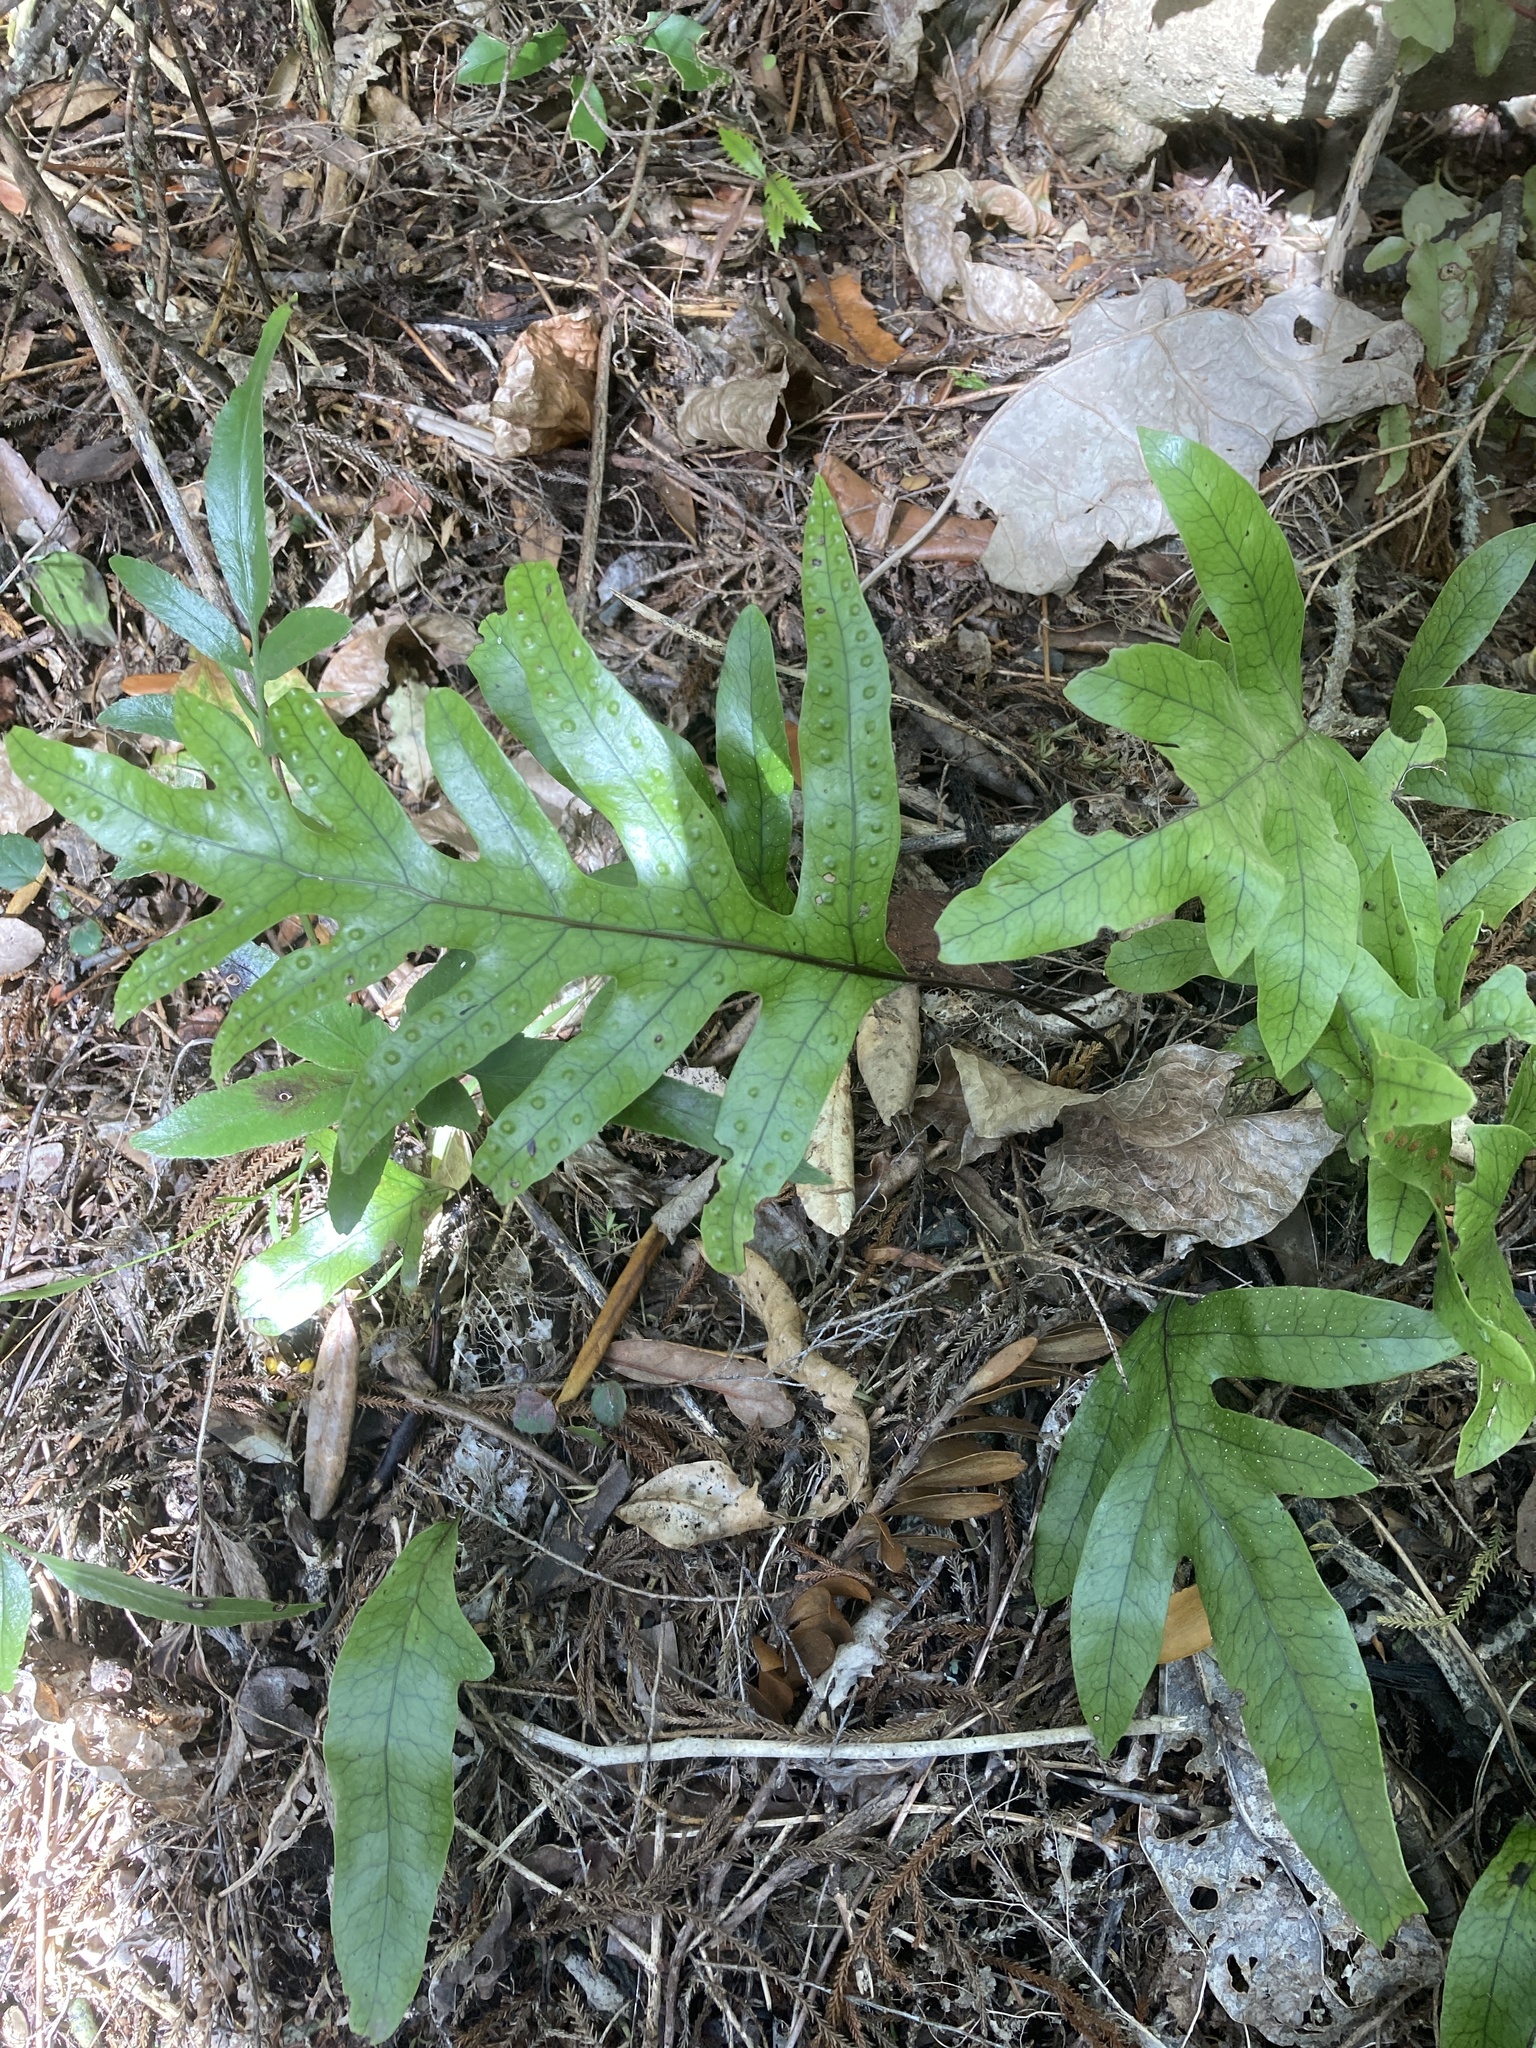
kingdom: Plantae
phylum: Tracheophyta
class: Polypodiopsida
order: Polypodiales
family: Polypodiaceae
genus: Lecanopteris
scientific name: Lecanopteris pustulata
